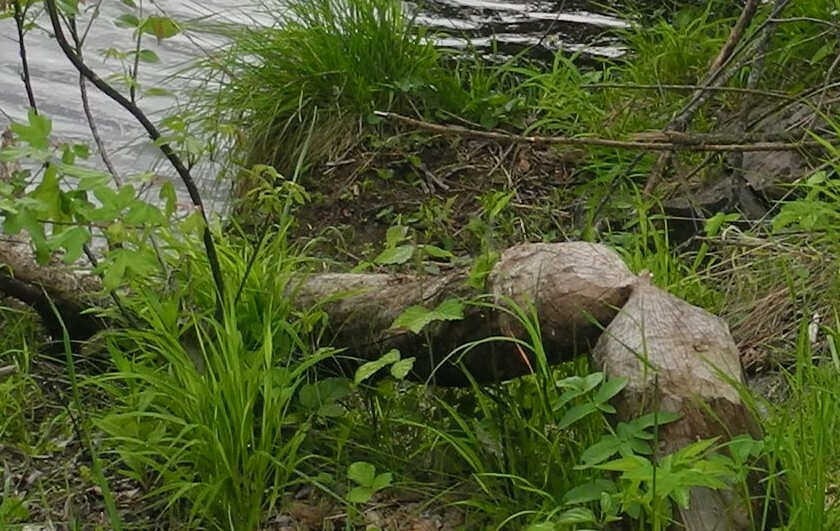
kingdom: Animalia
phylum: Chordata
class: Mammalia
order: Rodentia
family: Castoridae
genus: Castor
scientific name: Castor fiber
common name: Eurasian beaver
